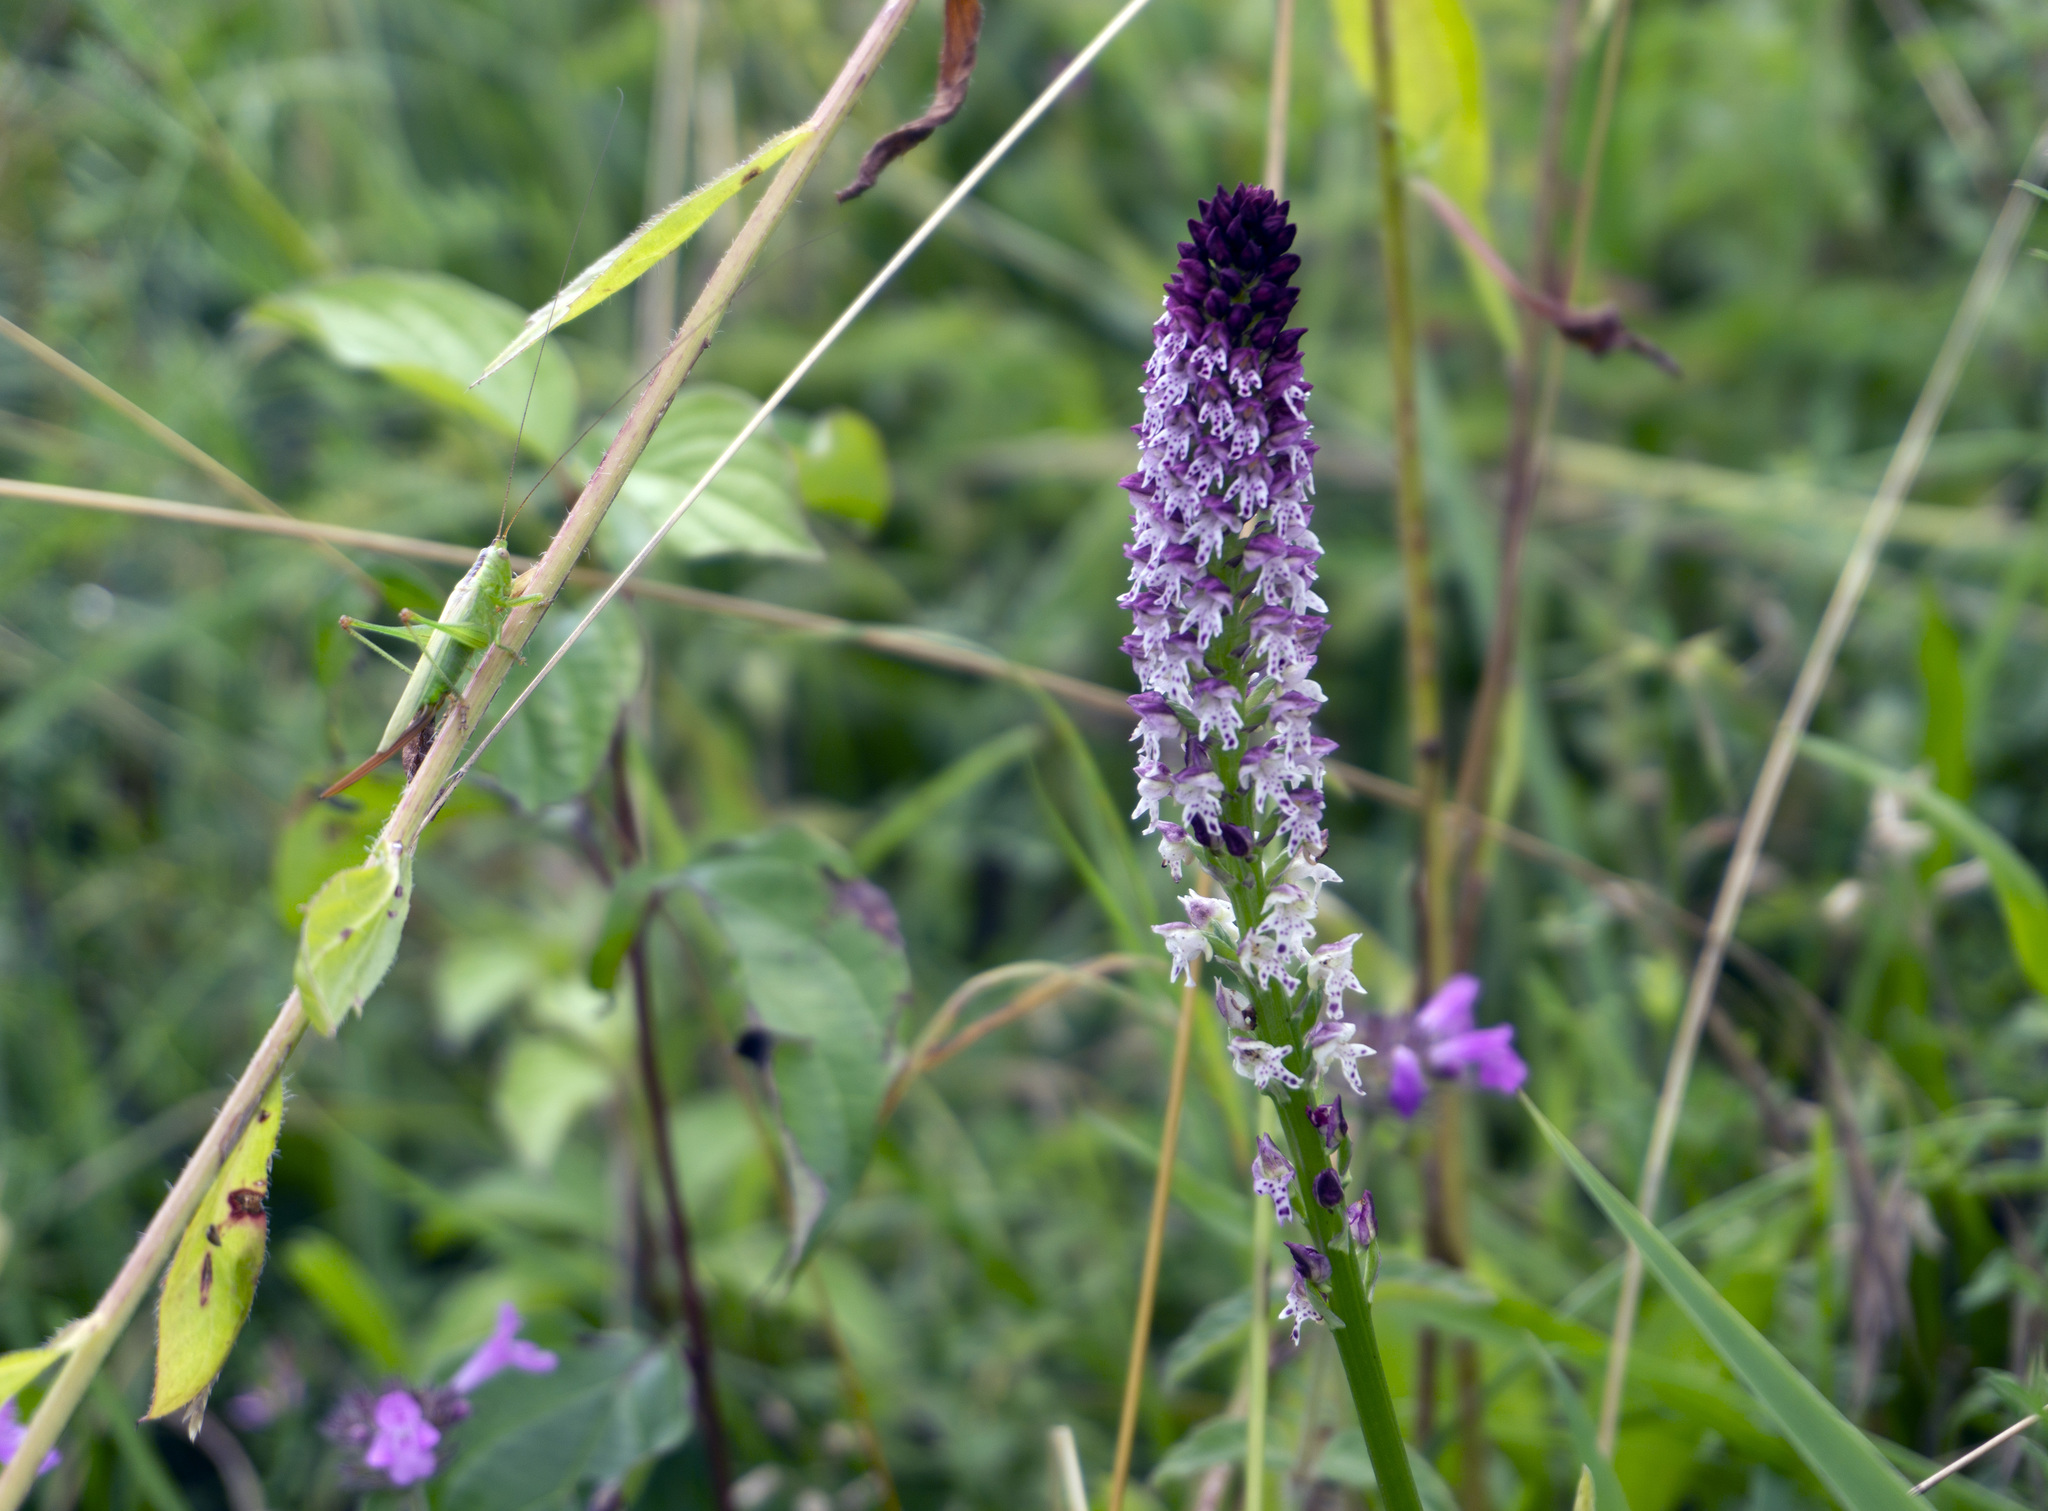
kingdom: Plantae
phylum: Tracheophyta
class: Liliopsida
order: Asparagales
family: Orchidaceae
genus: Neotinea
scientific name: Neotinea ustulata
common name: Burnt orchid
